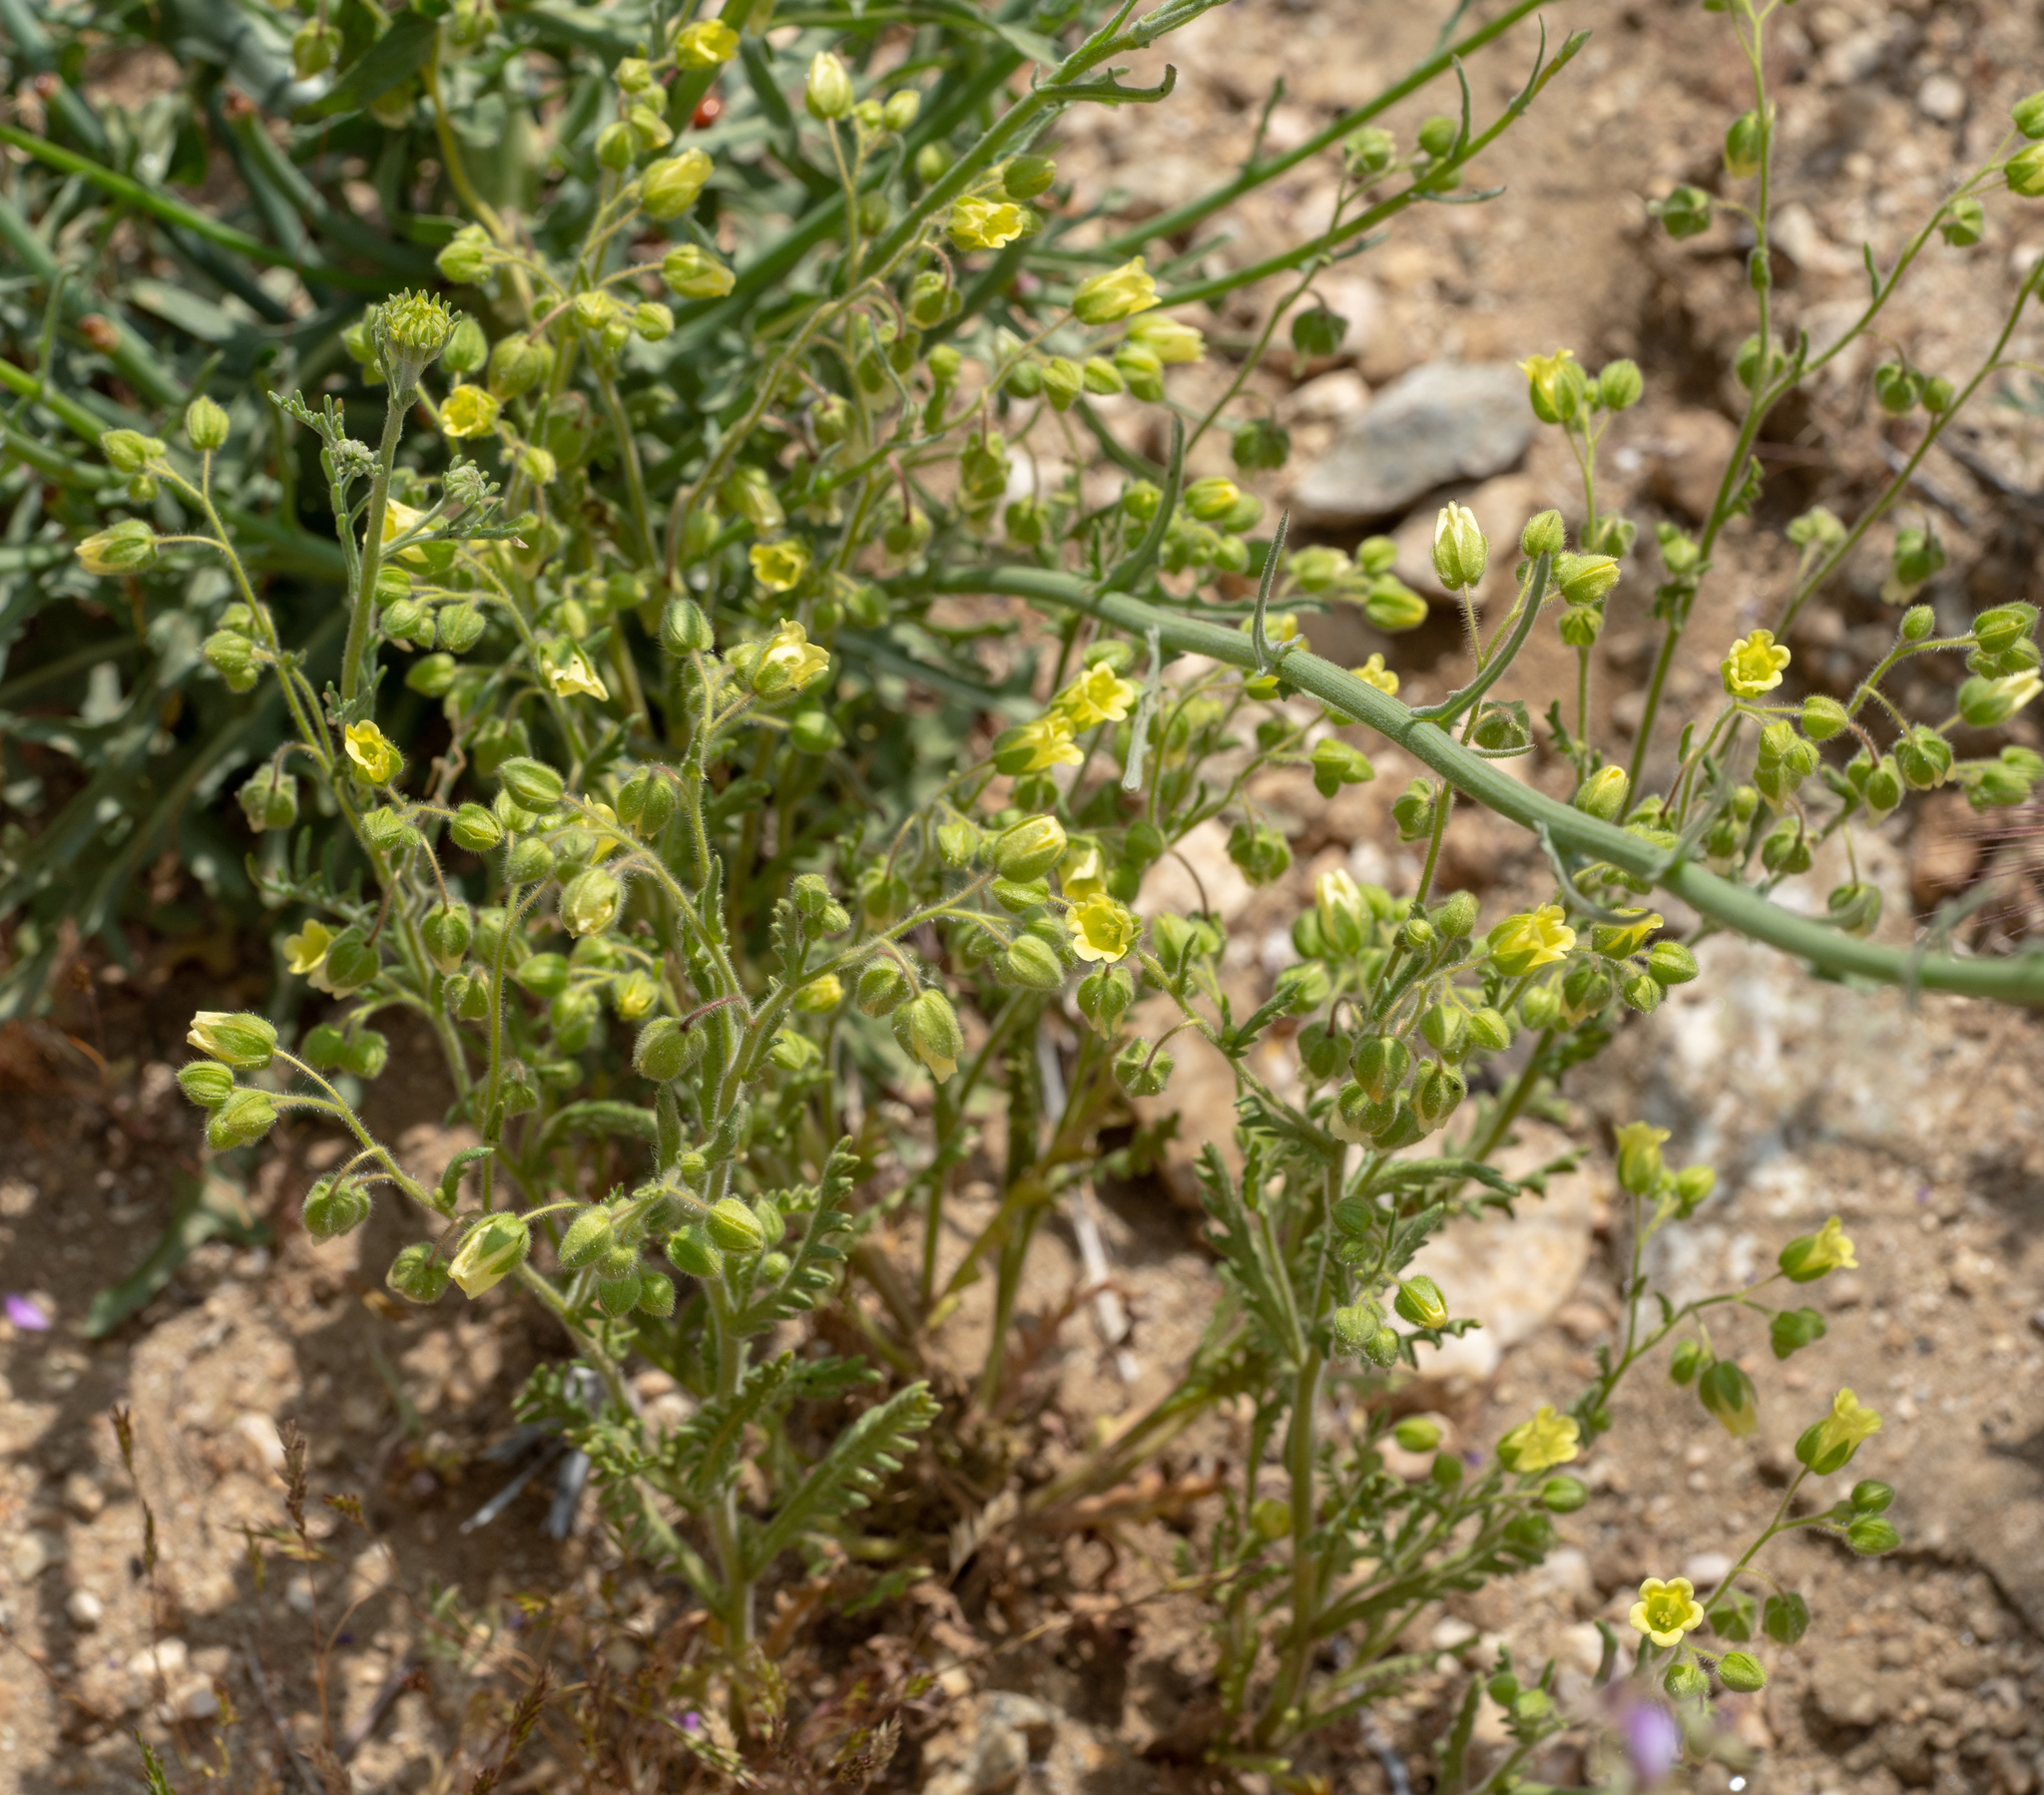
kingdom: Plantae
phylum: Tracheophyta
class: Magnoliopsida
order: Boraginales
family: Hydrophyllaceae
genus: Emmenanthe
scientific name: Emmenanthe penduliflora
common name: Whispering-bells
